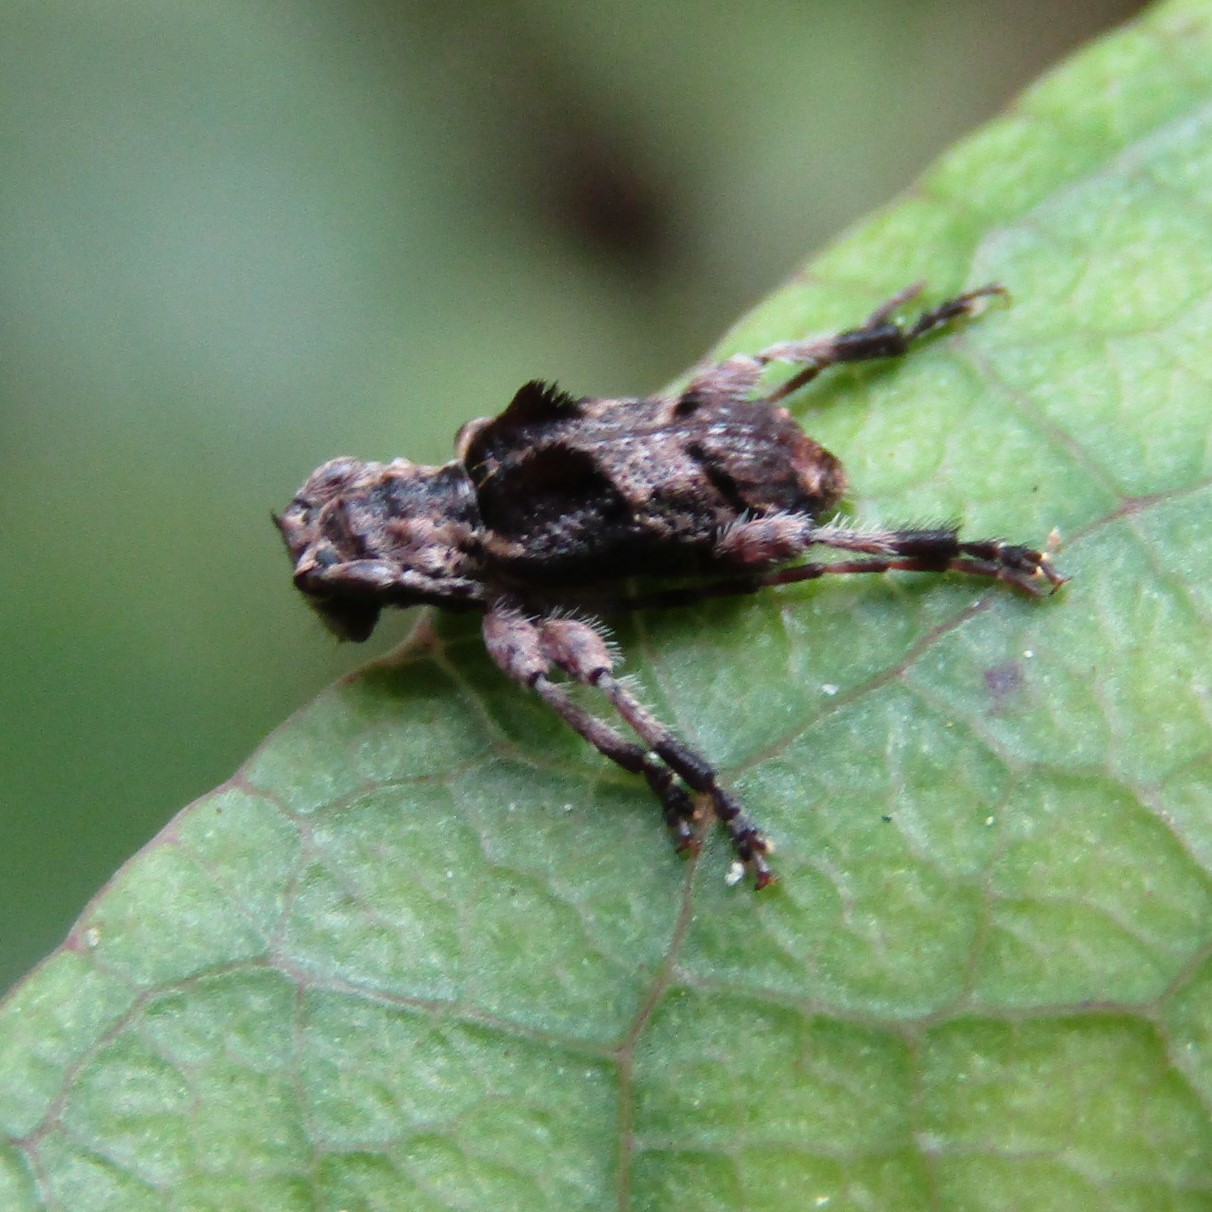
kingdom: Animalia
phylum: Arthropoda
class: Insecta
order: Coleoptera
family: Cerambycidae
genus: Hybolasius
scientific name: Hybolasius cristus
